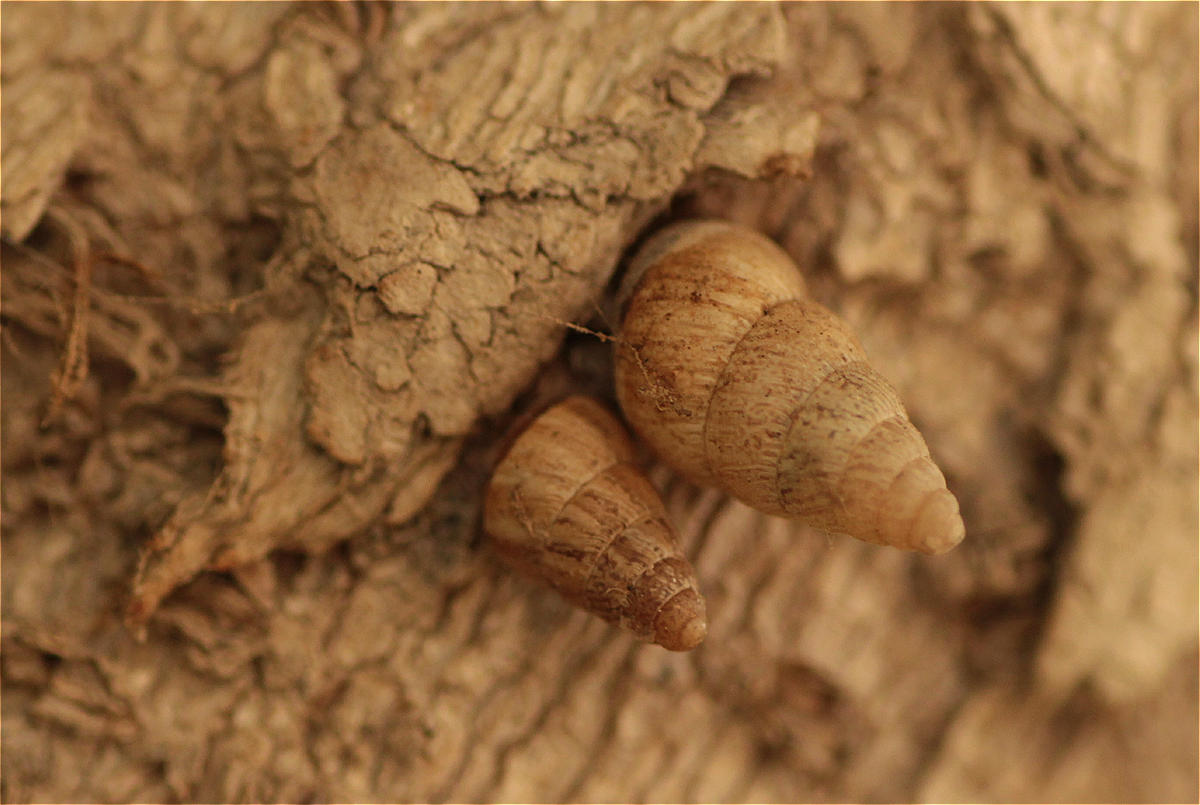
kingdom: Animalia
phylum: Mollusca
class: Gastropoda
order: Stylommatophora
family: Geomitridae
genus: Cochlicella
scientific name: Cochlicella barbara
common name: Potbellied helicellid
